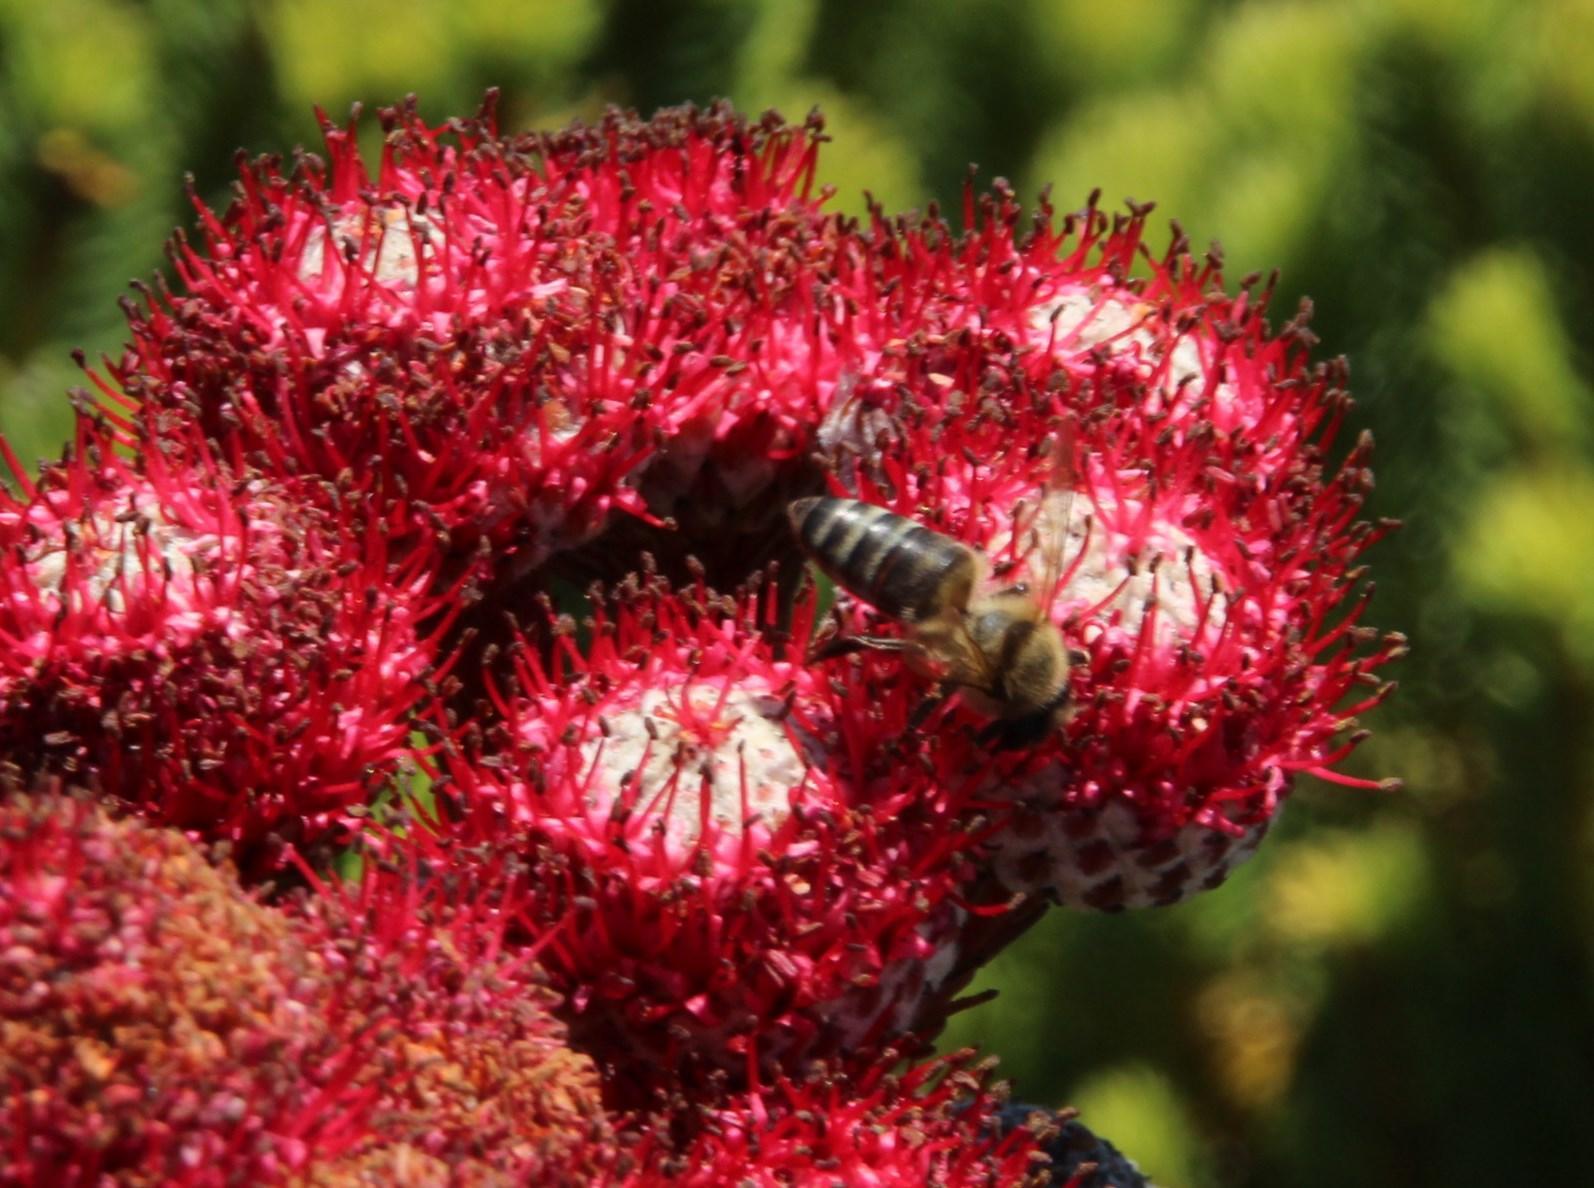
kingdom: Plantae
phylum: Tracheophyta
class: Magnoliopsida
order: Bruniales
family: Bruniaceae
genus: Berzelia
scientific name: Berzelia stokoei
